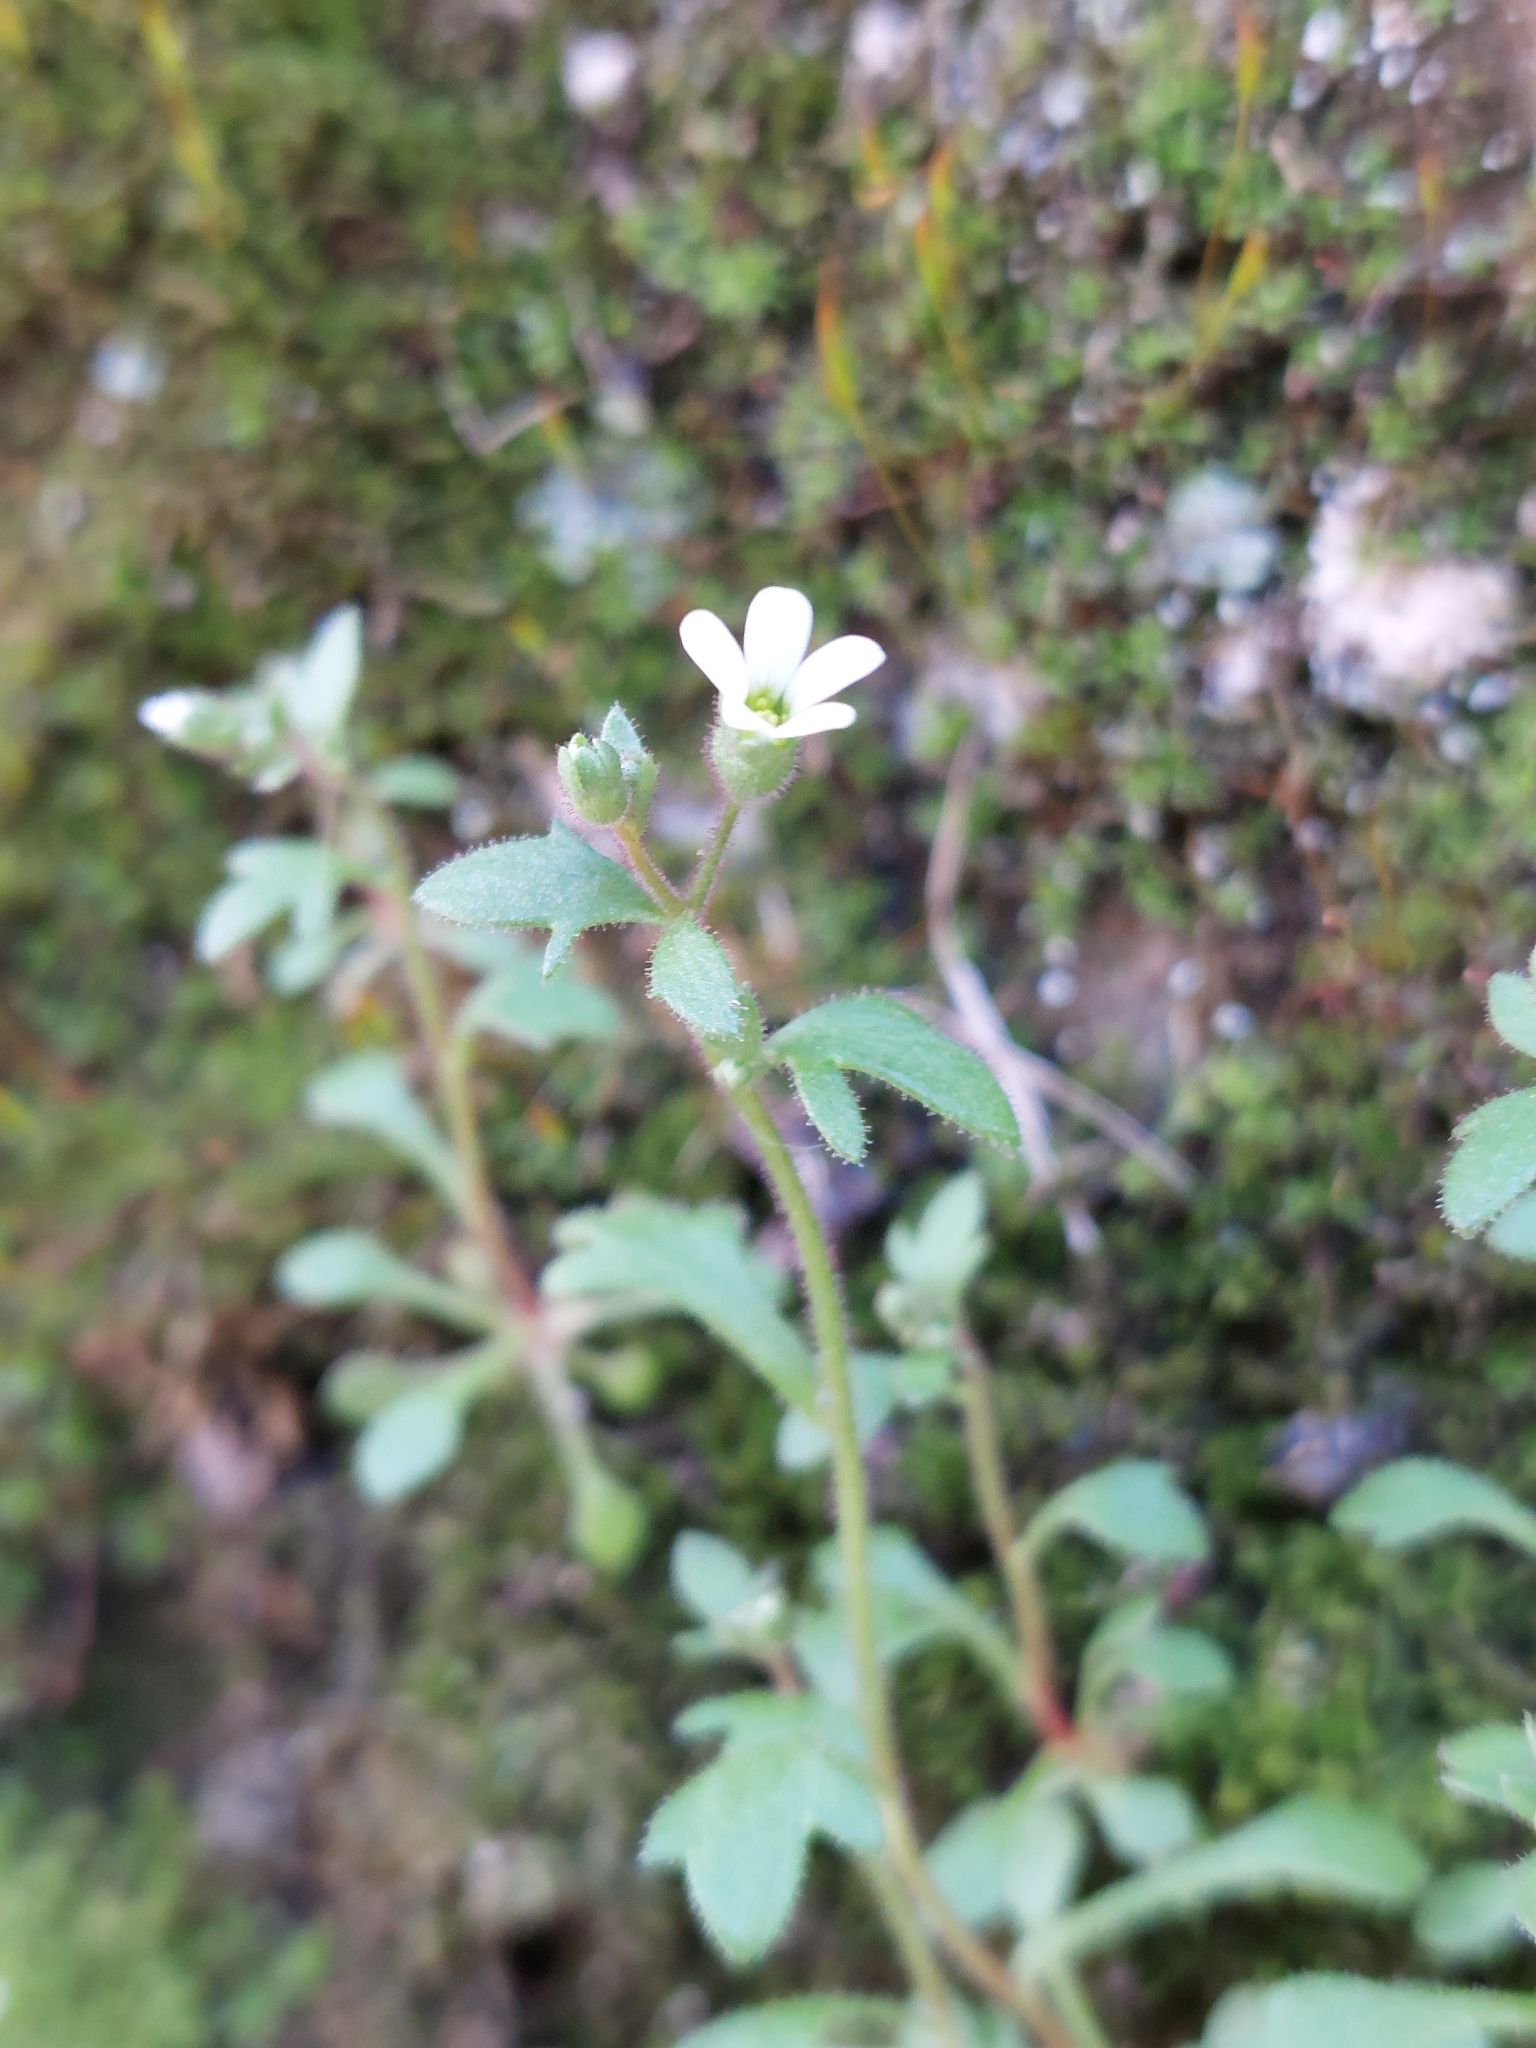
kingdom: Plantae
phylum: Tracheophyta
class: Magnoliopsida
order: Saxifragales
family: Saxifragaceae
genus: Saxifraga
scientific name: Saxifraga tridactylites
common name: Rue-leaved saxifrage
